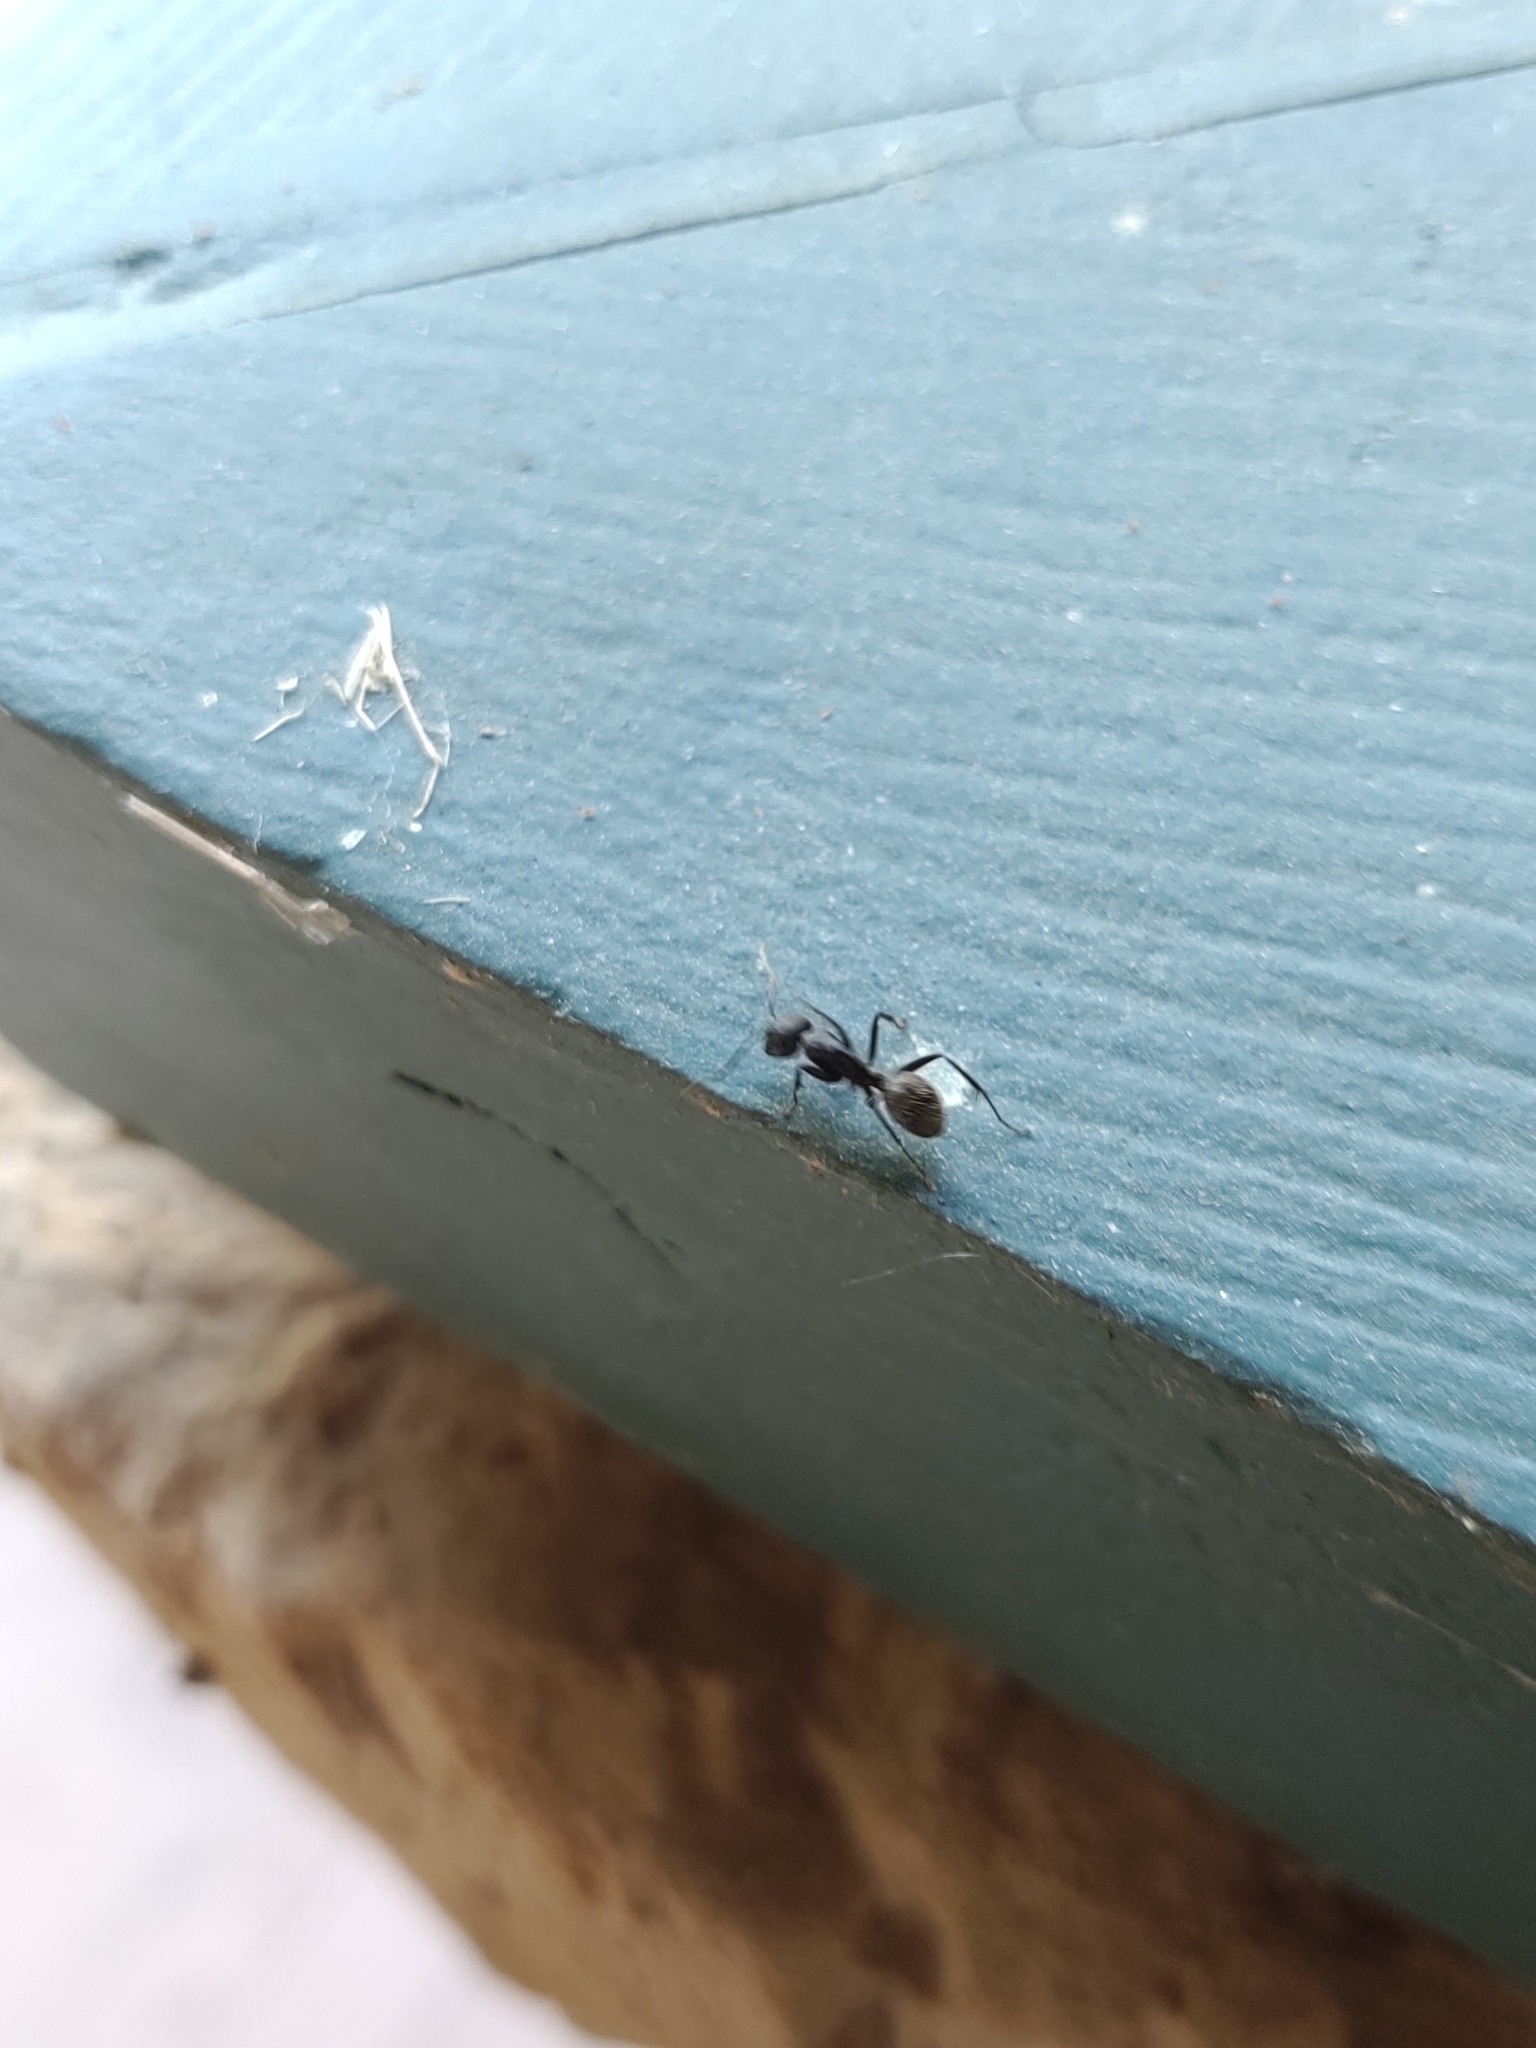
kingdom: Animalia
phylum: Arthropoda
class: Insecta
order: Hymenoptera
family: Formicidae
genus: Camponotus
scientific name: Camponotus pennsylvanicus
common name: Black carpenter ant
